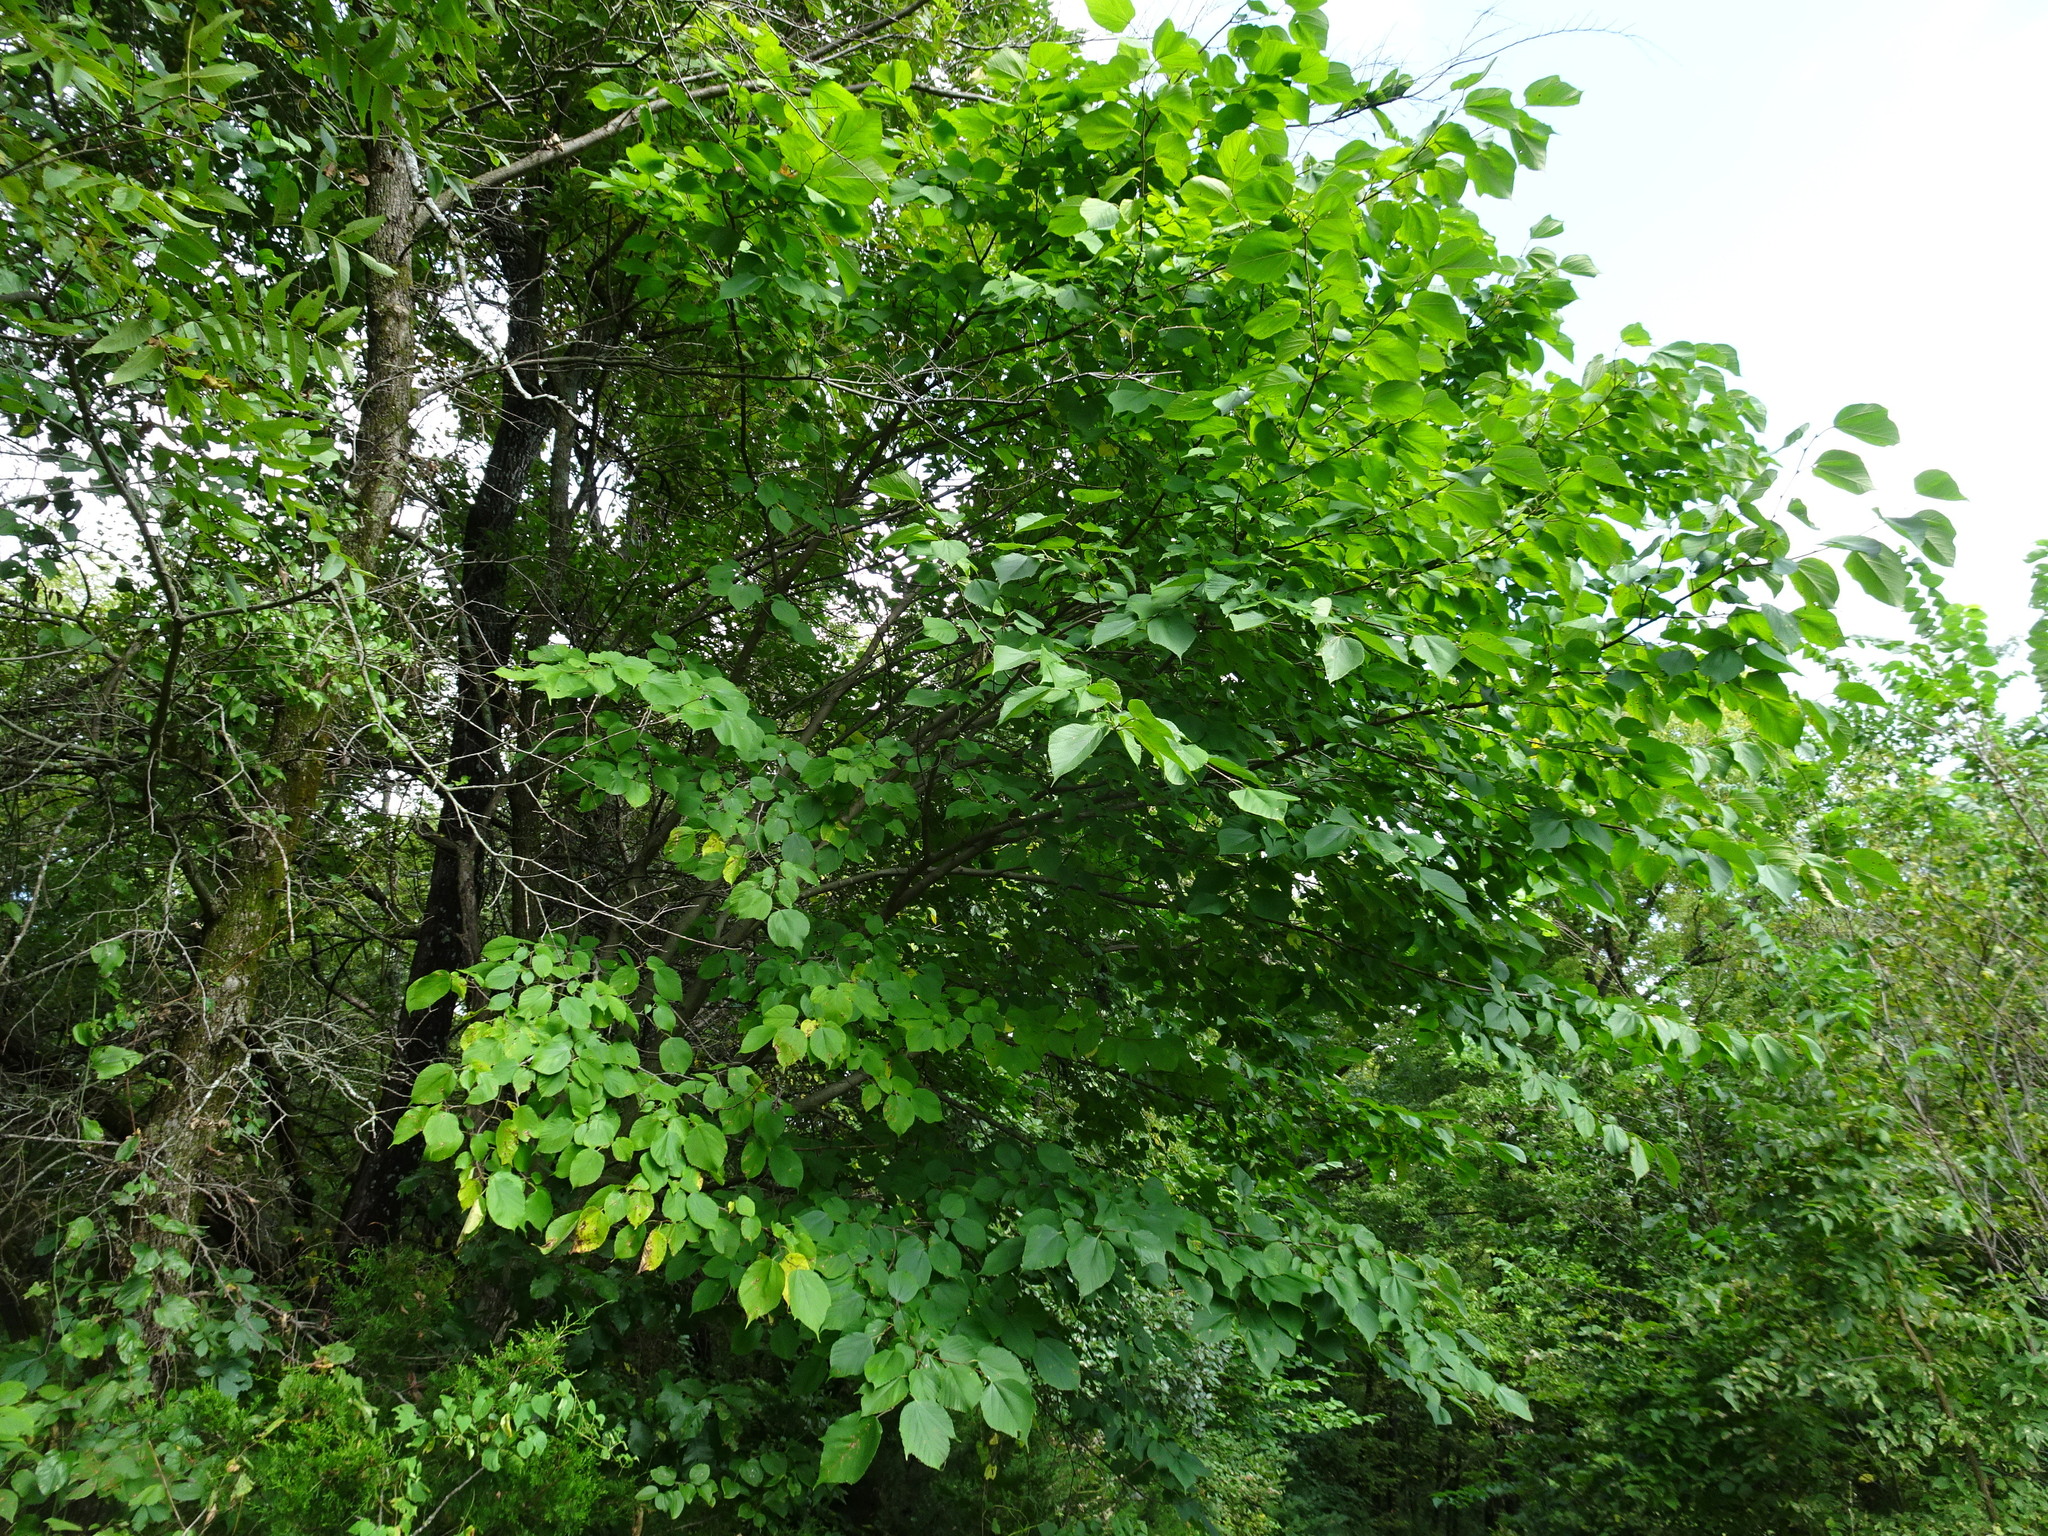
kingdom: Plantae
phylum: Tracheophyta
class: Magnoliopsida
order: Rosales
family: Moraceae
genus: Morus
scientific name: Morus rubra
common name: Red mulberry
